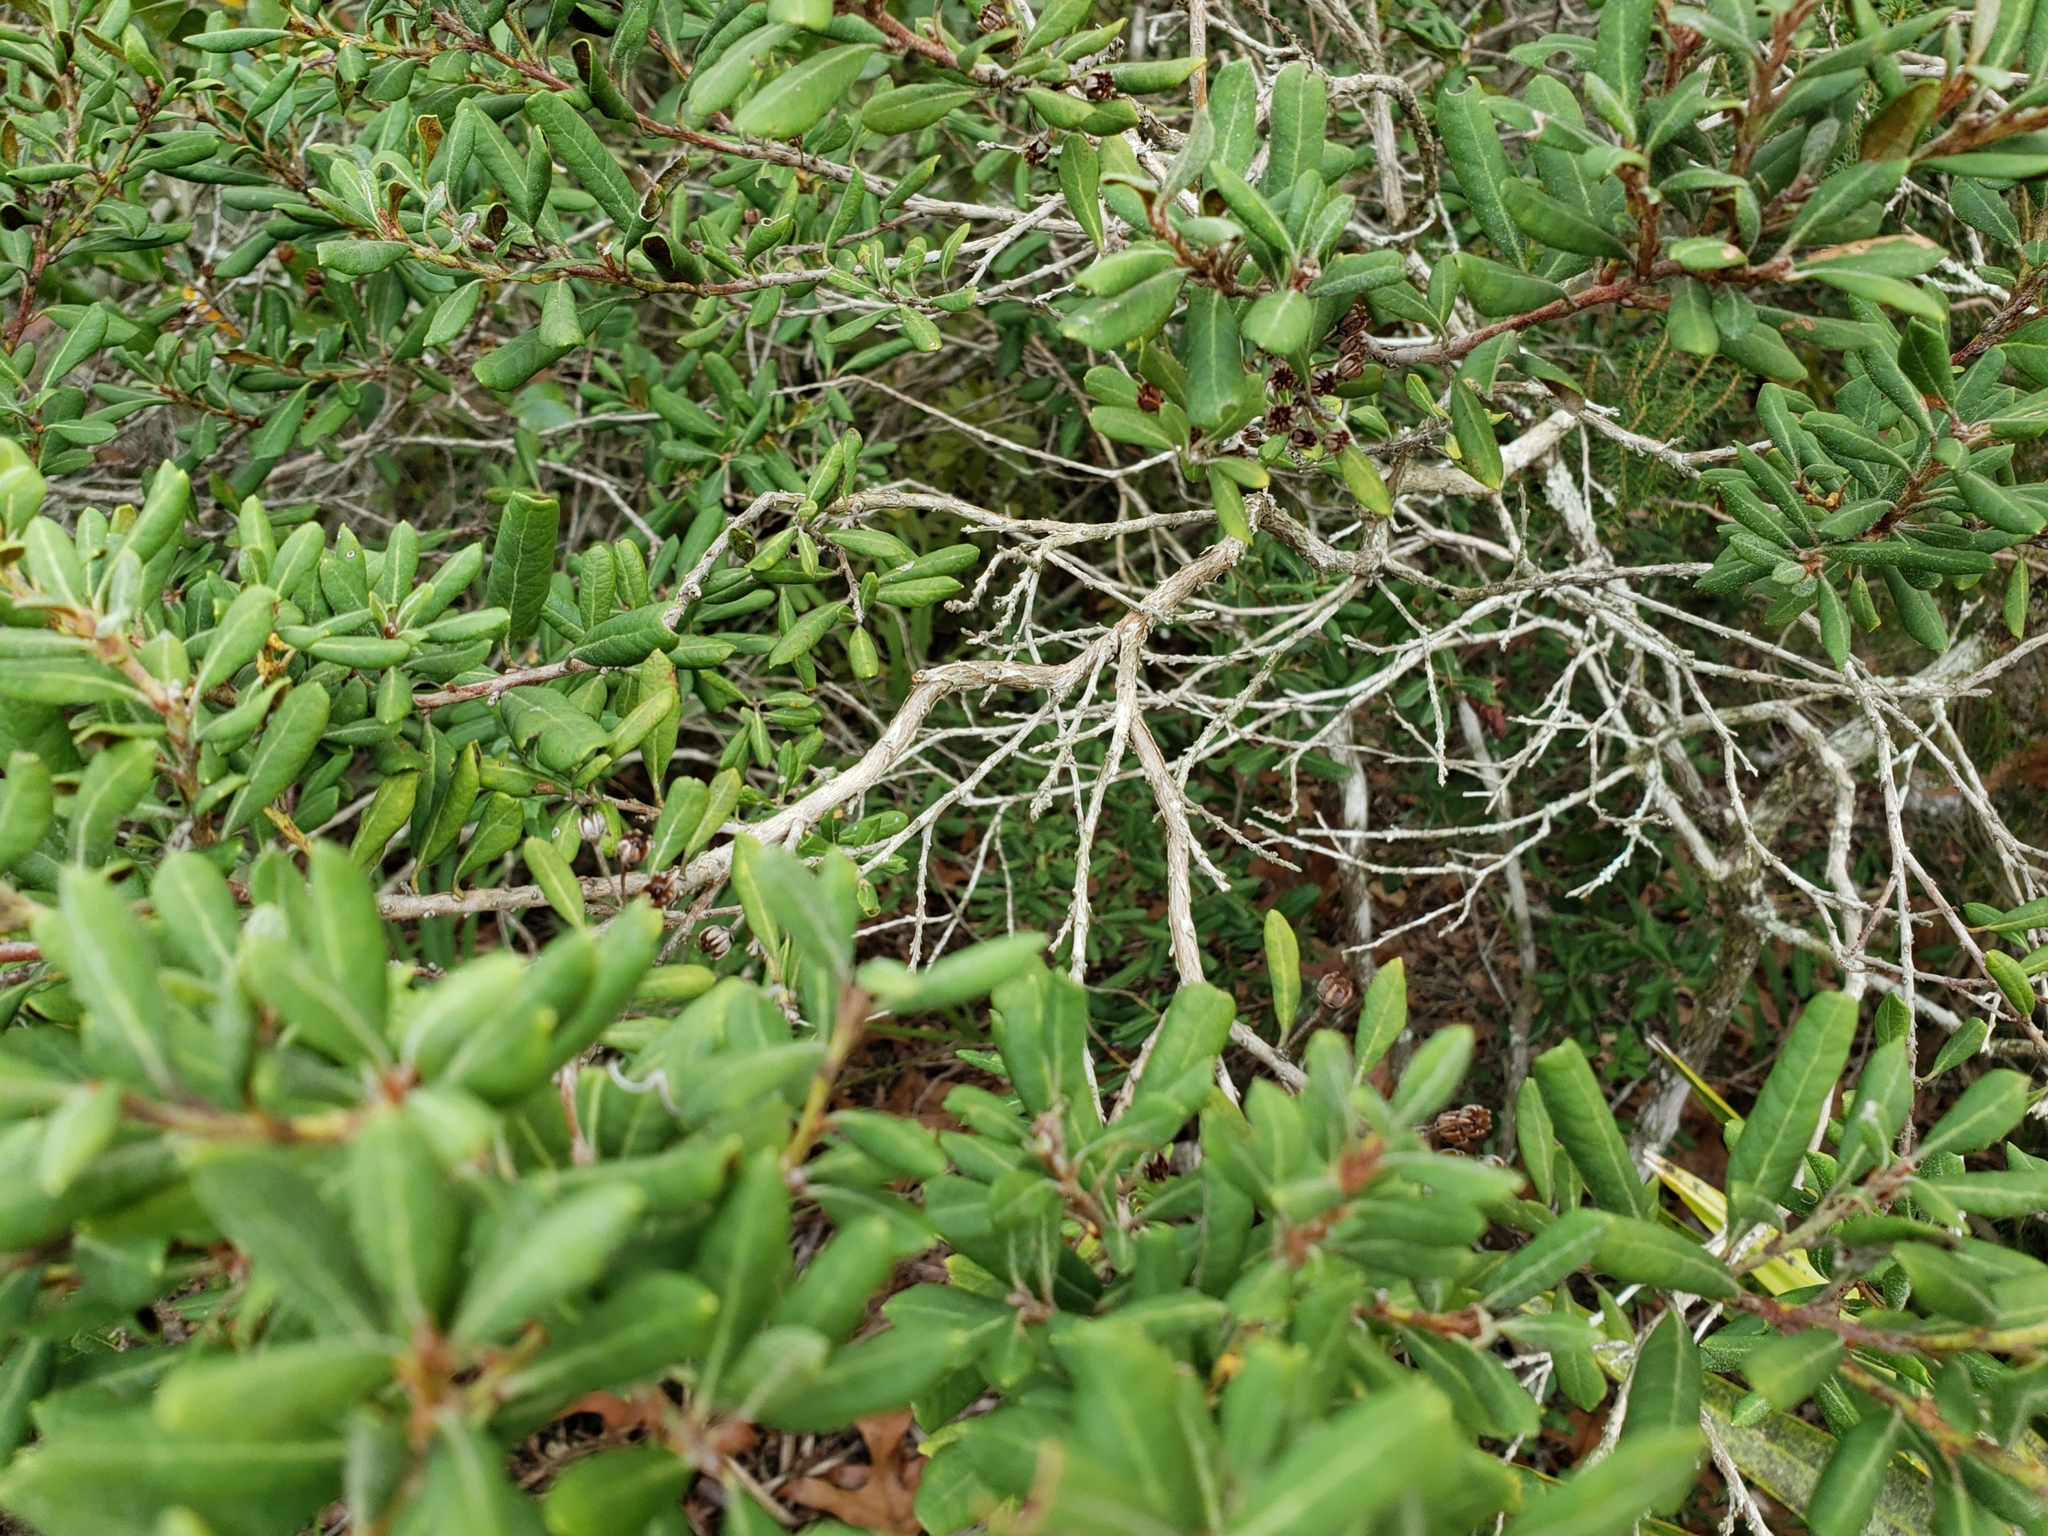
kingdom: Plantae
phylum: Tracheophyta
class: Magnoliopsida
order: Ericales
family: Ericaceae
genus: Lyonia
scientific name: Lyonia ferruginea
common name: Rusty lyonia
